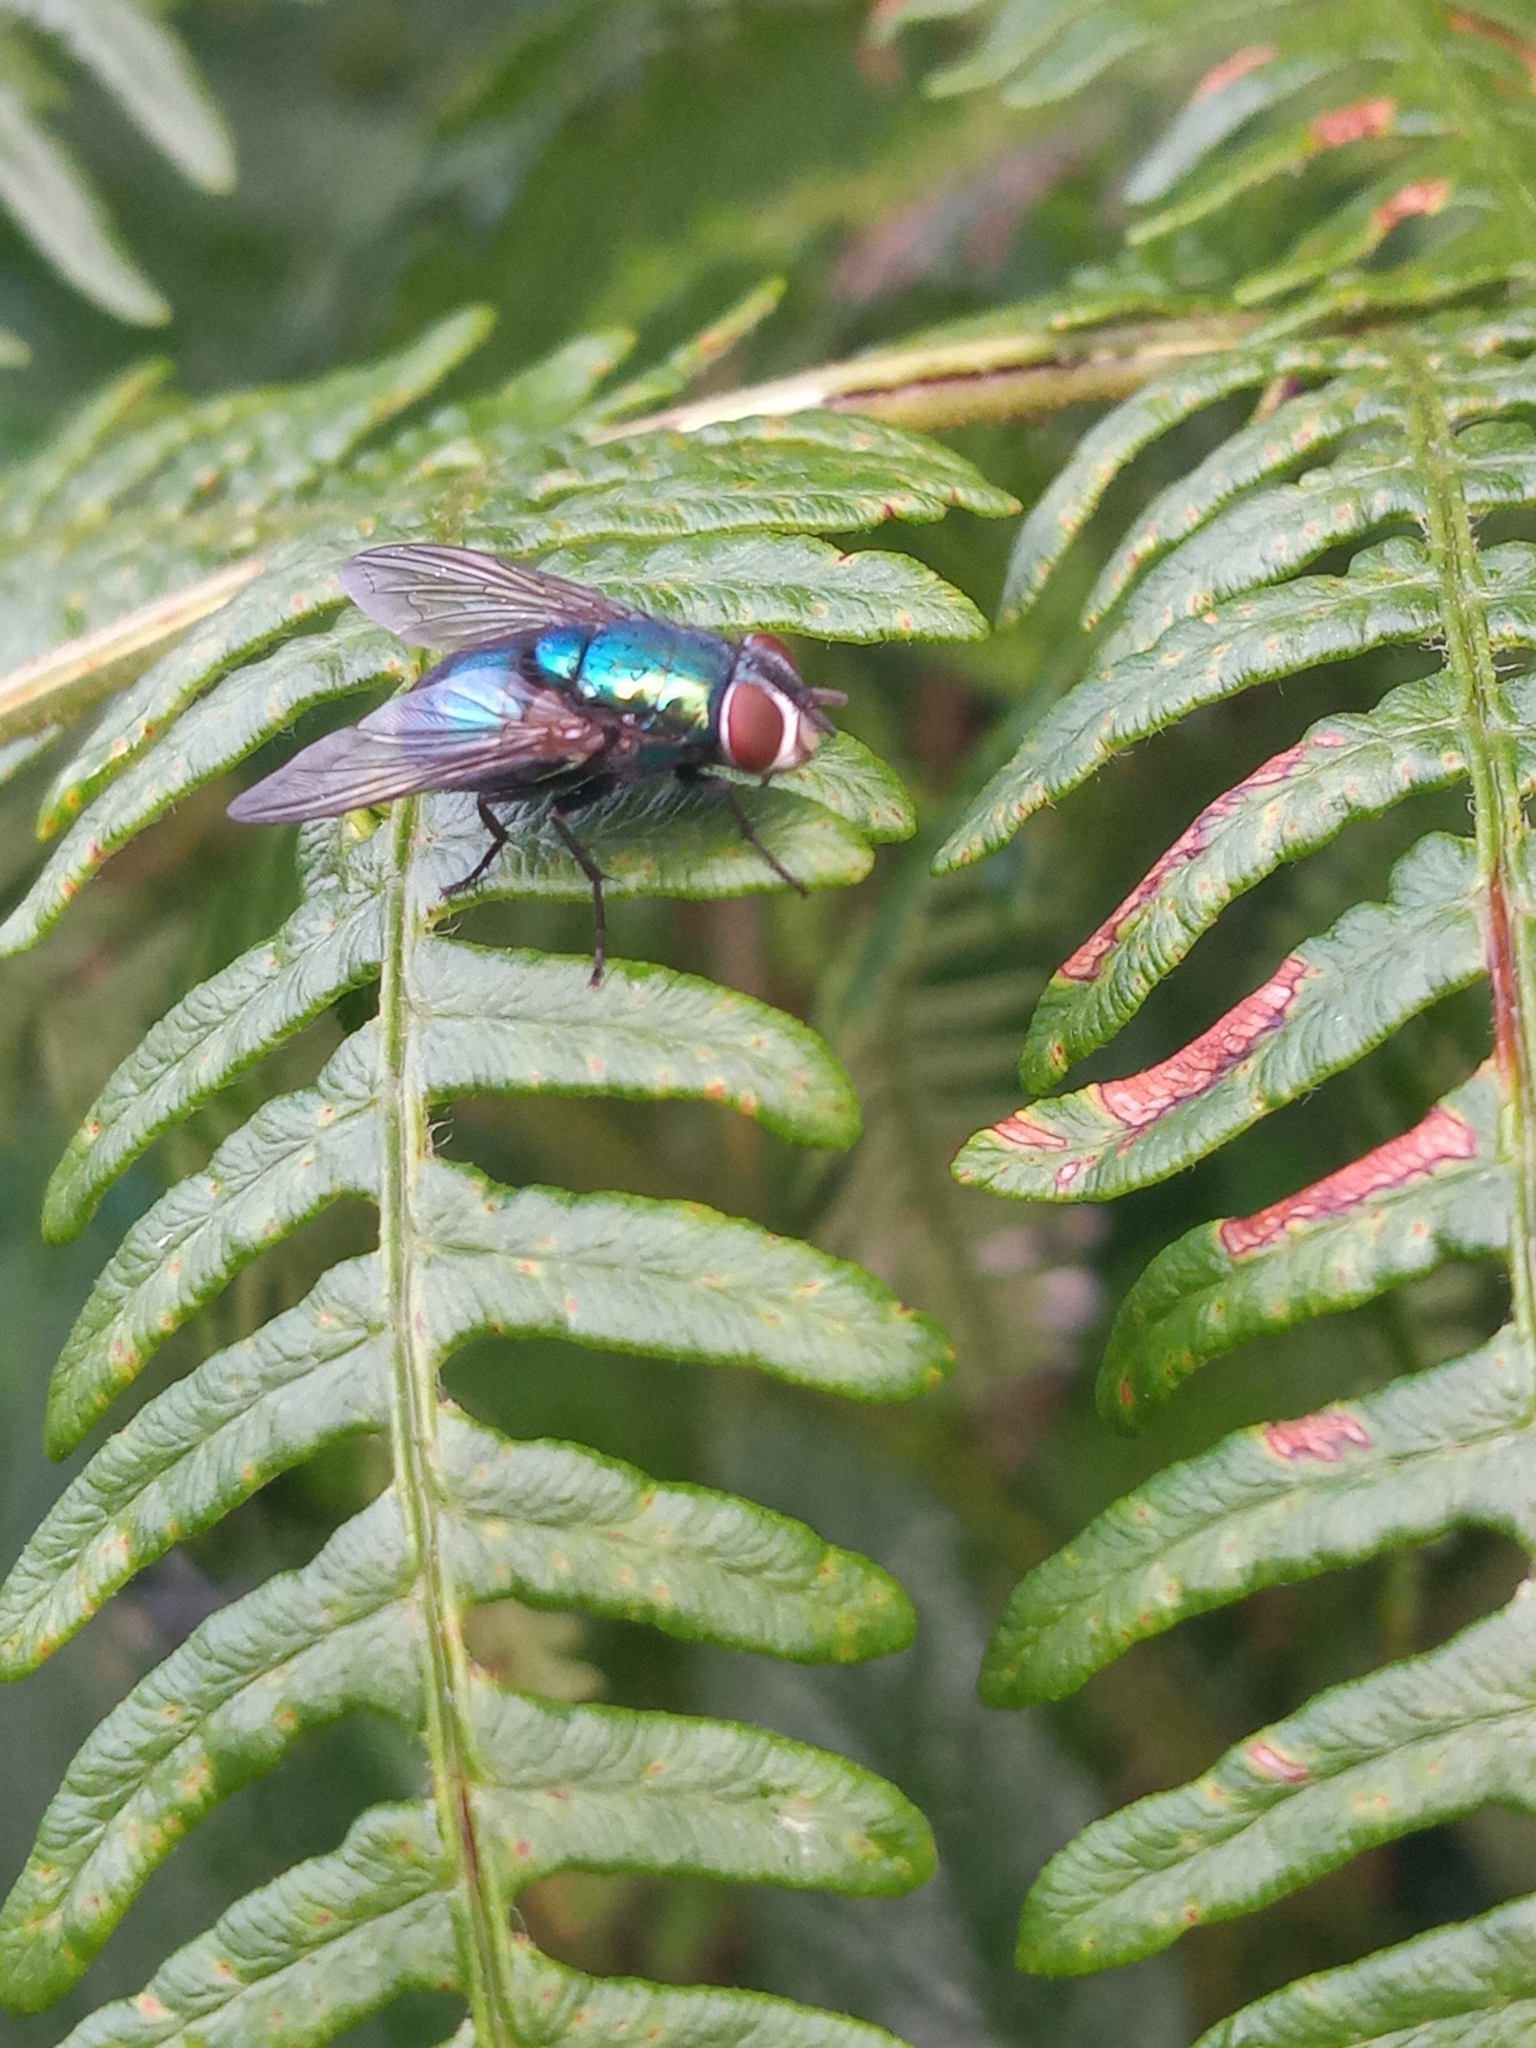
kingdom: Animalia
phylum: Arthropoda
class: Insecta
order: Diptera
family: Calliphoridae
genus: Lucilia
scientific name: Lucilia
